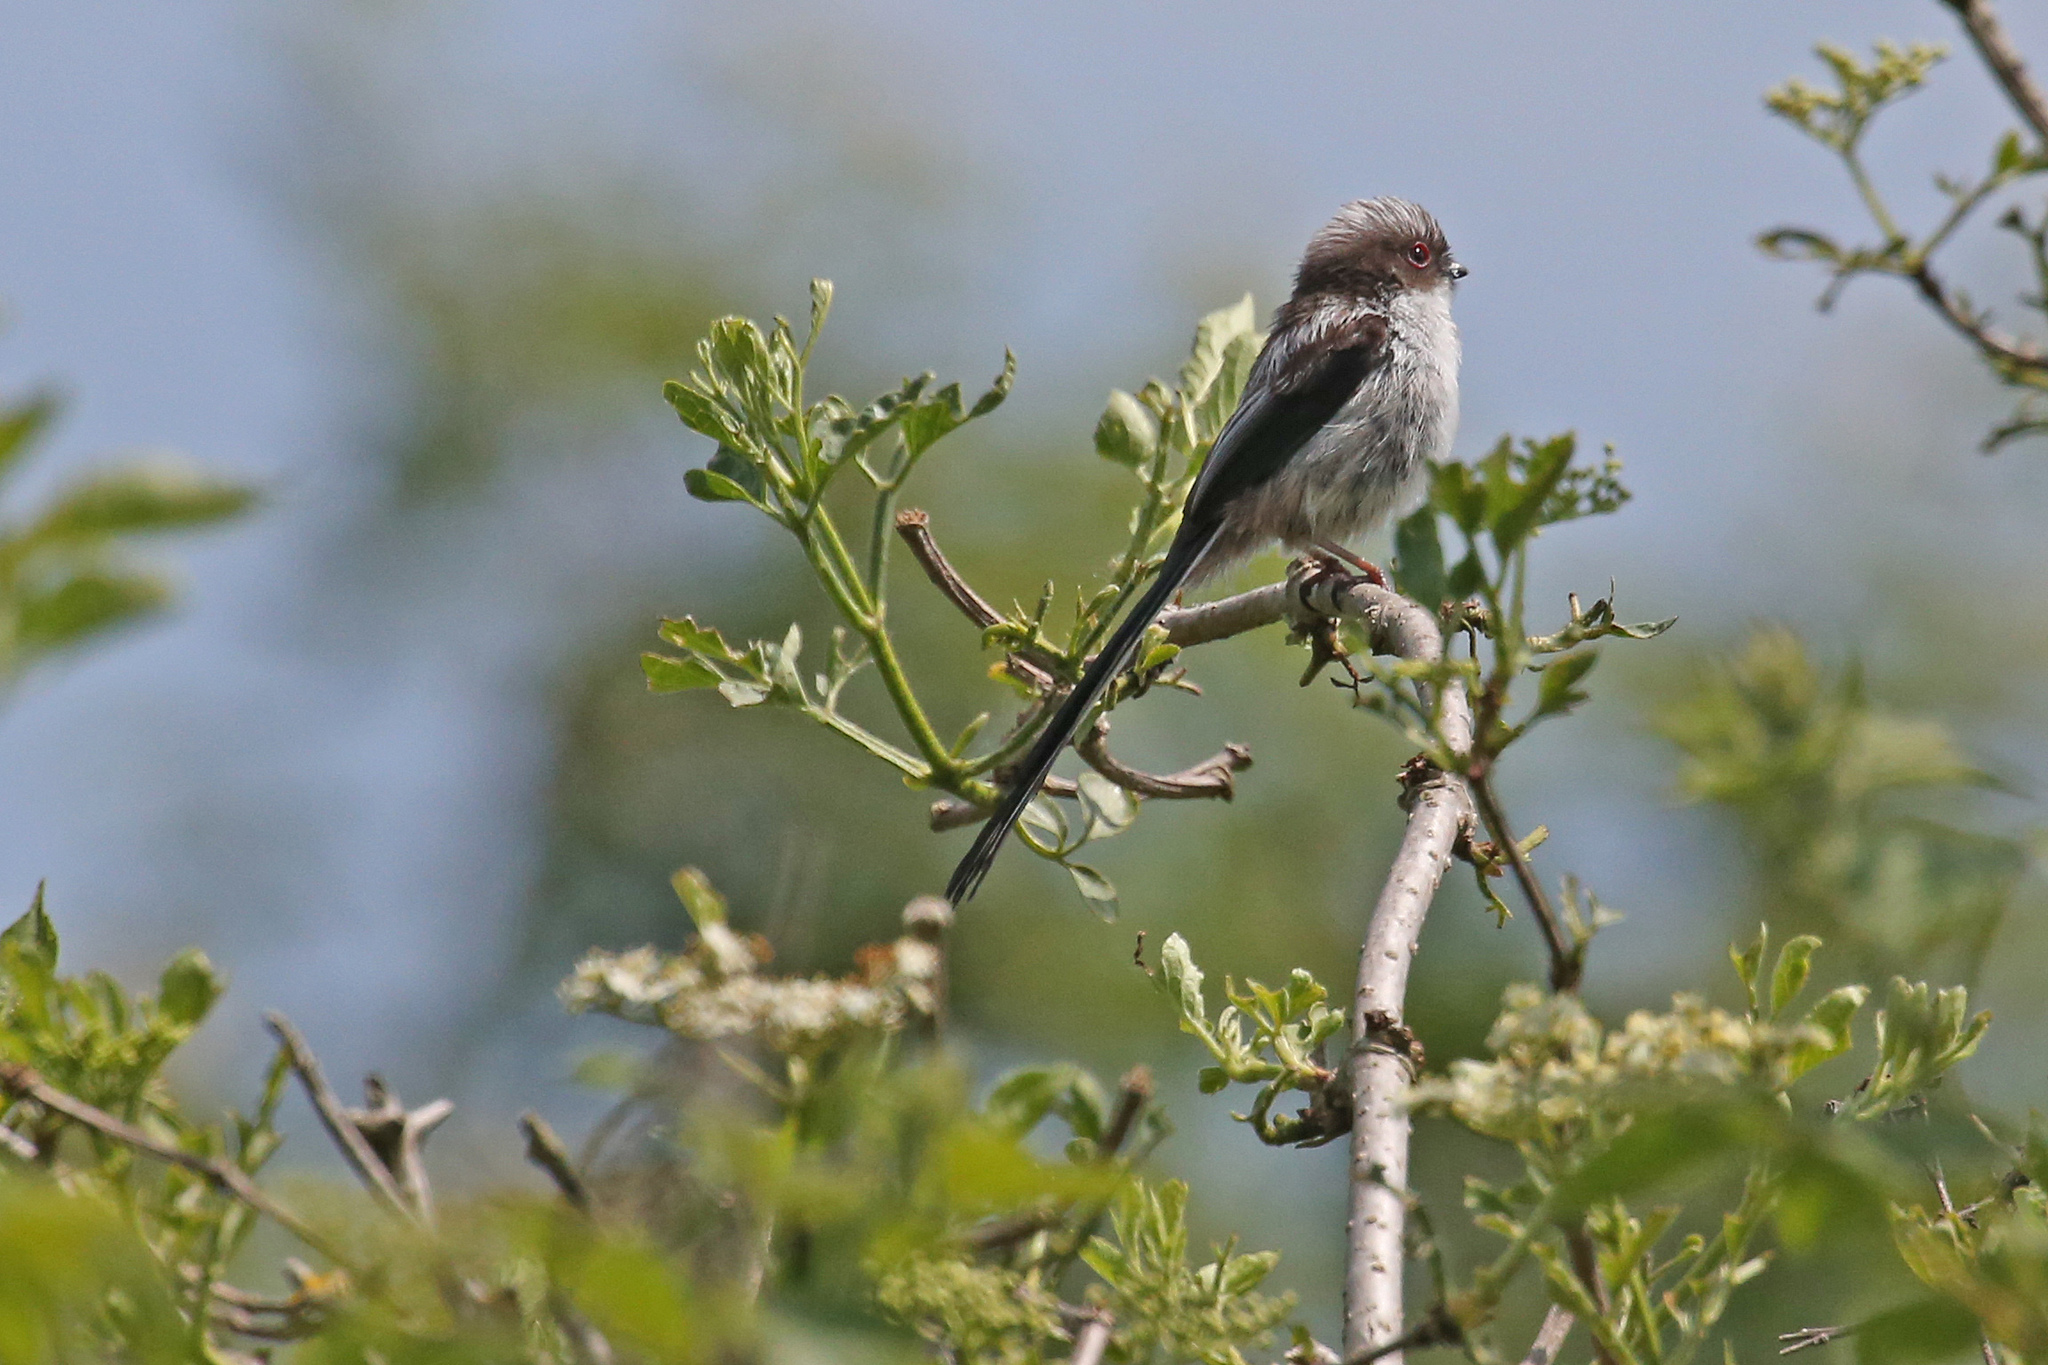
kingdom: Animalia
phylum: Chordata
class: Aves
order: Passeriformes
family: Aegithalidae
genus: Aegithalos
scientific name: Aegithalos caudatus
